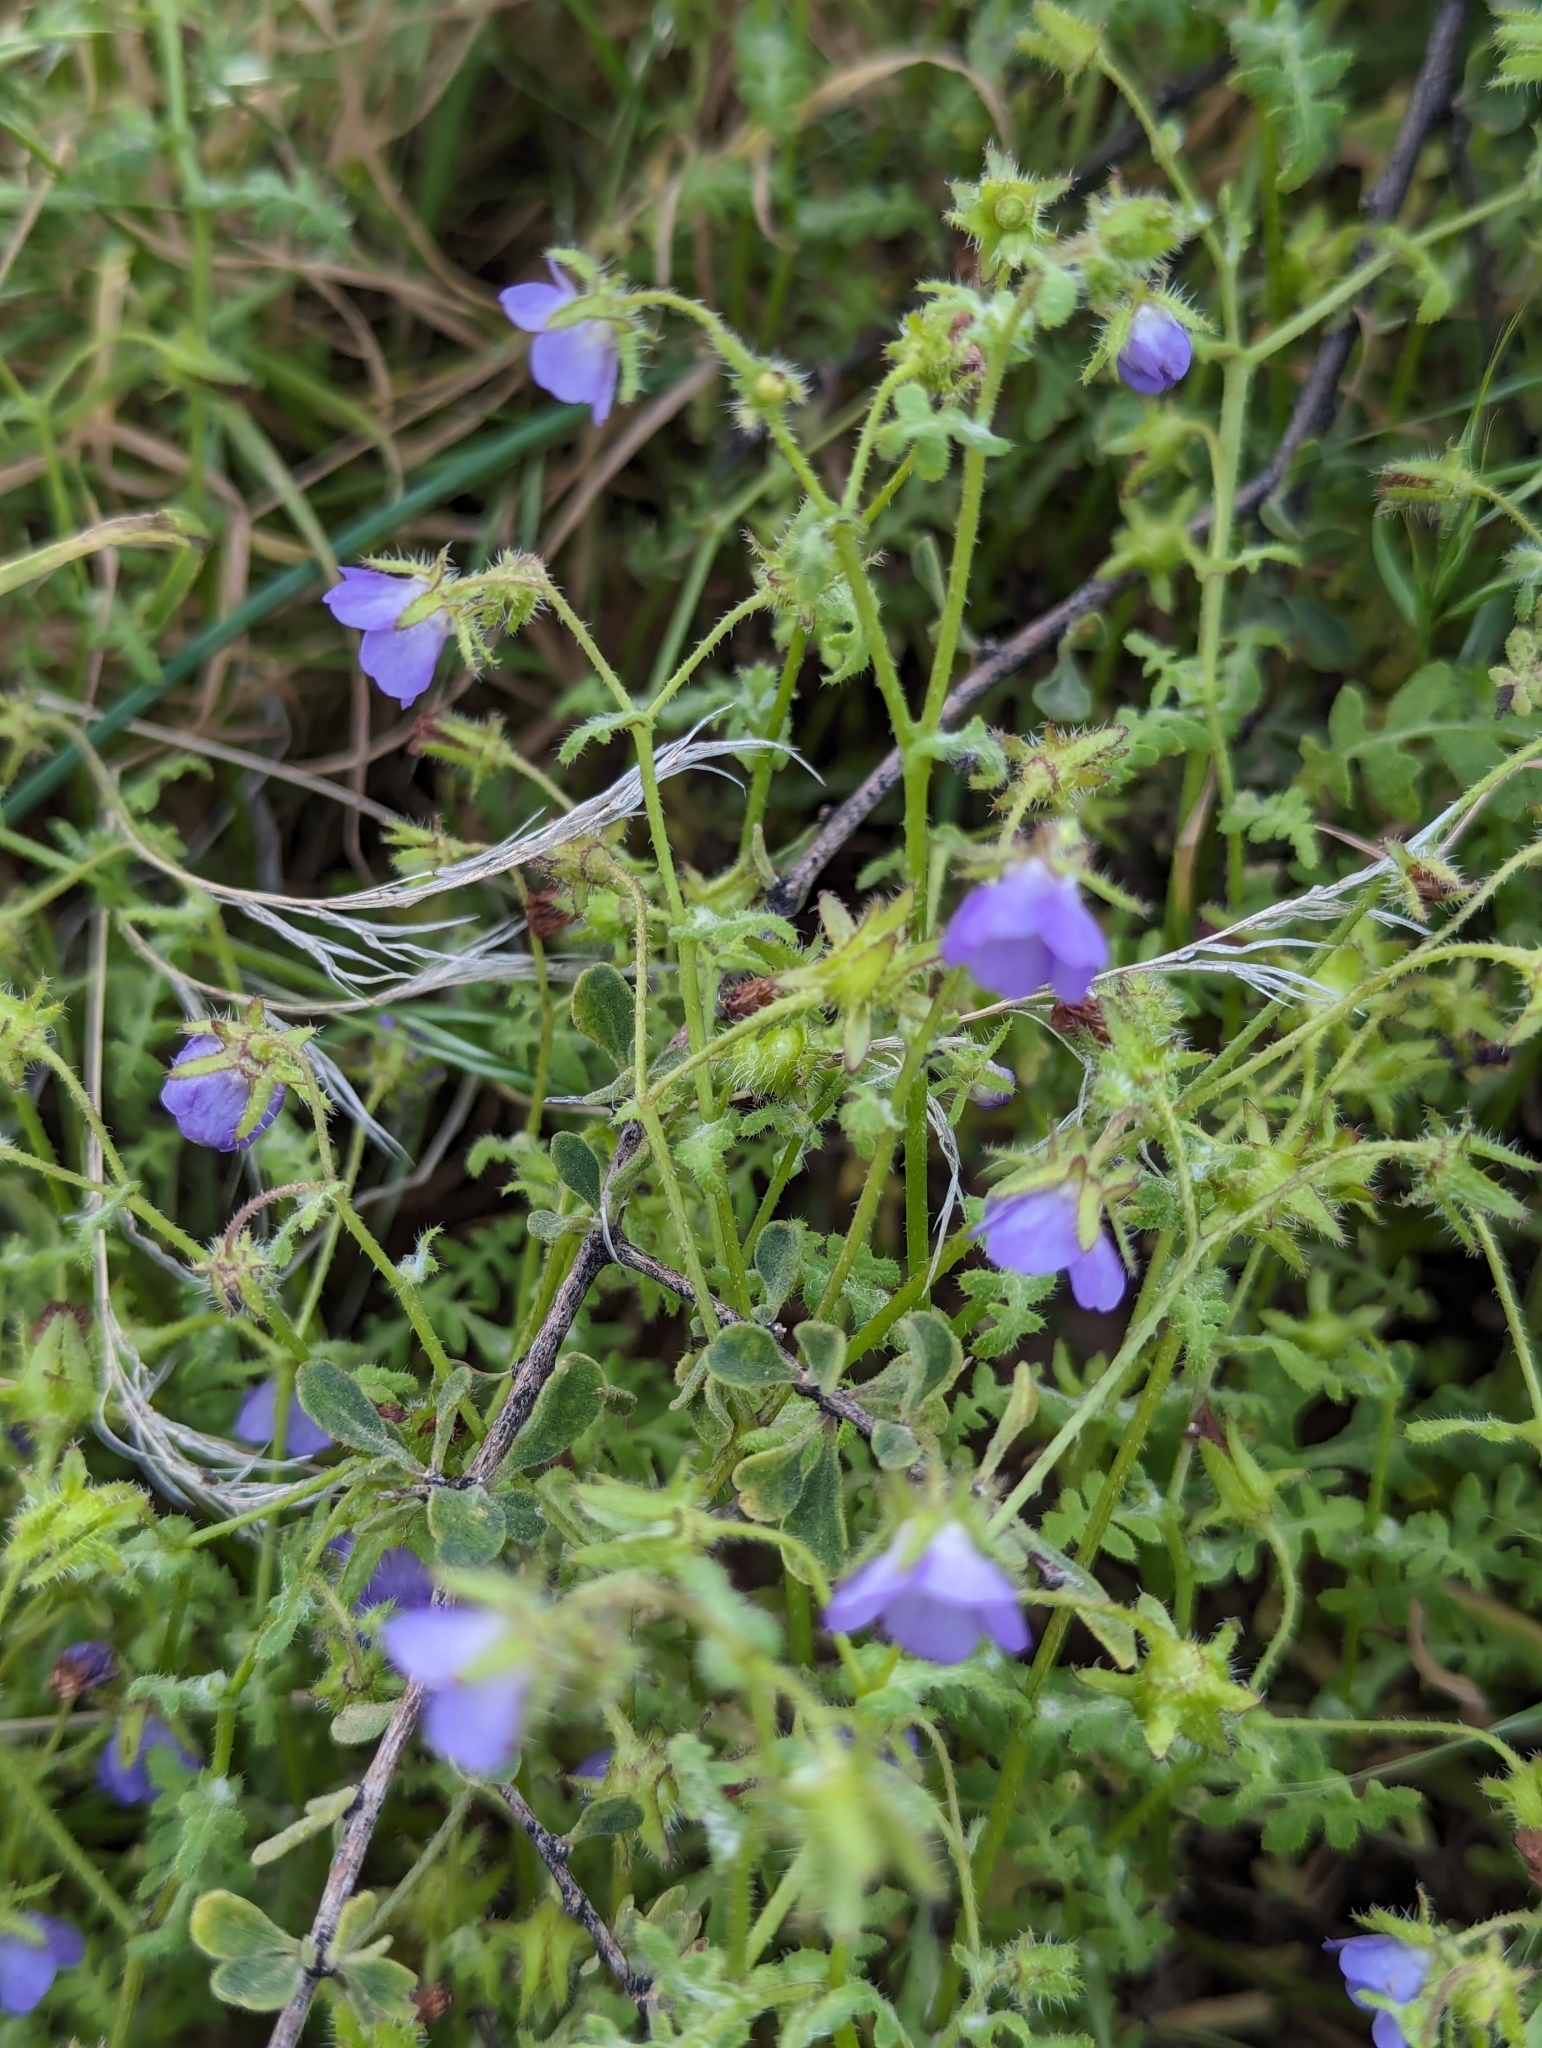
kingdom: Plantae
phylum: Tracheophyta
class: Magnoliopsida
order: Boraginales
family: Hydrophyllaceae
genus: Pholistoma
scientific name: Pholistoma auritum
